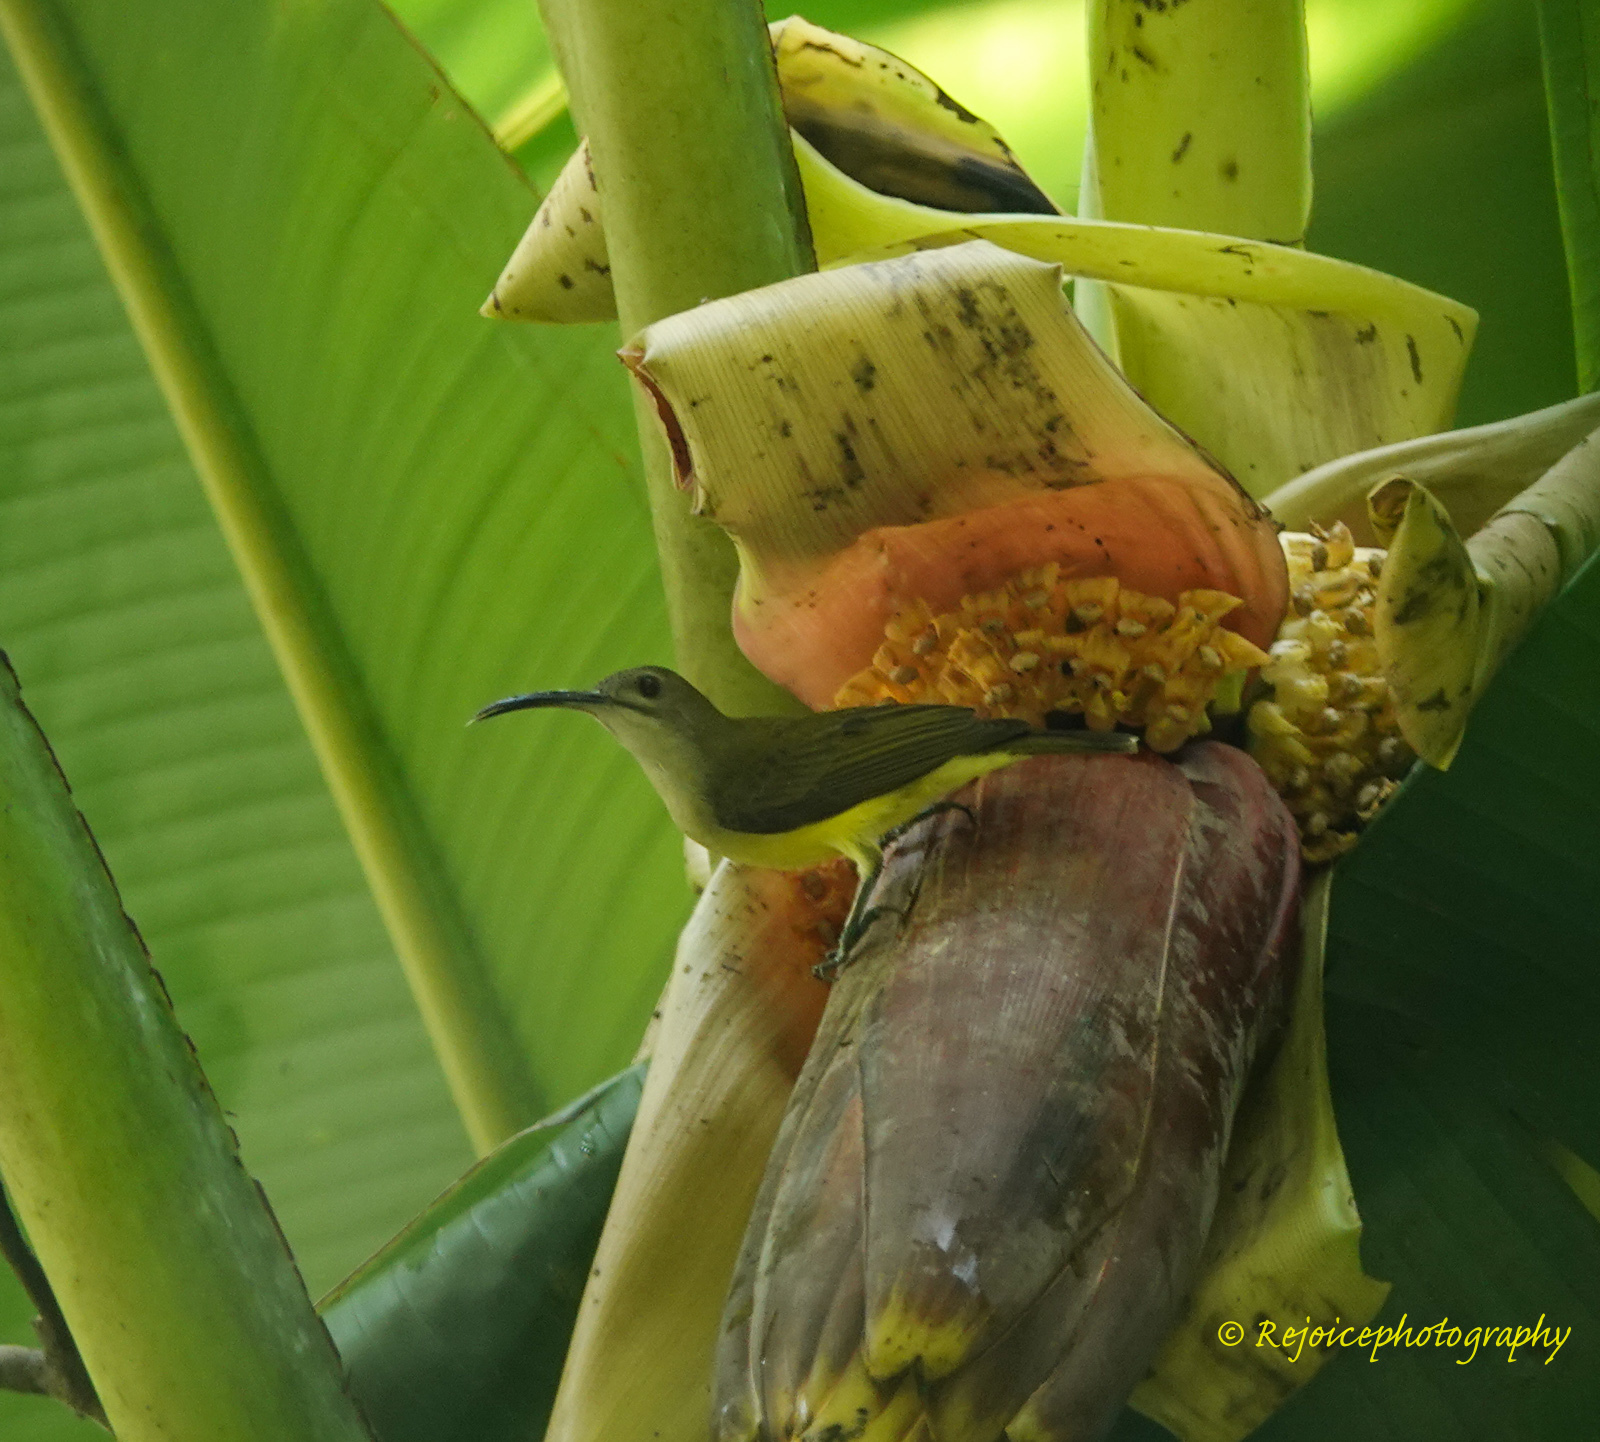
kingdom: Animalia
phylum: Chordata
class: Aves
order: Passeriformes
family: Nectariniidae
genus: Arachnothera
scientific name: Arachnothera longirostra
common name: Little spiderhunter
